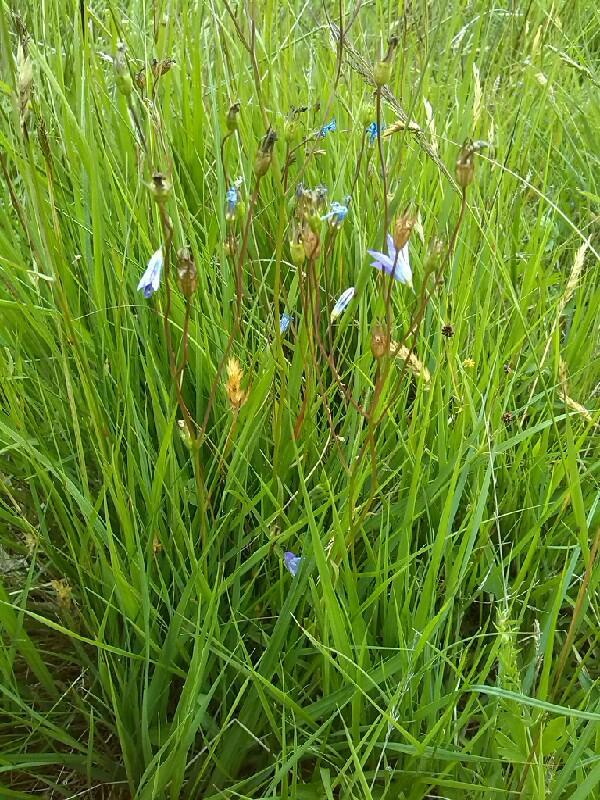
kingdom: Plantae
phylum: Tracheophyta
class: Magnoliopsida
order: Asterales
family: Campanulaceae
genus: Campanula
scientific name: Campanula patula
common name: Spreading bellflower
